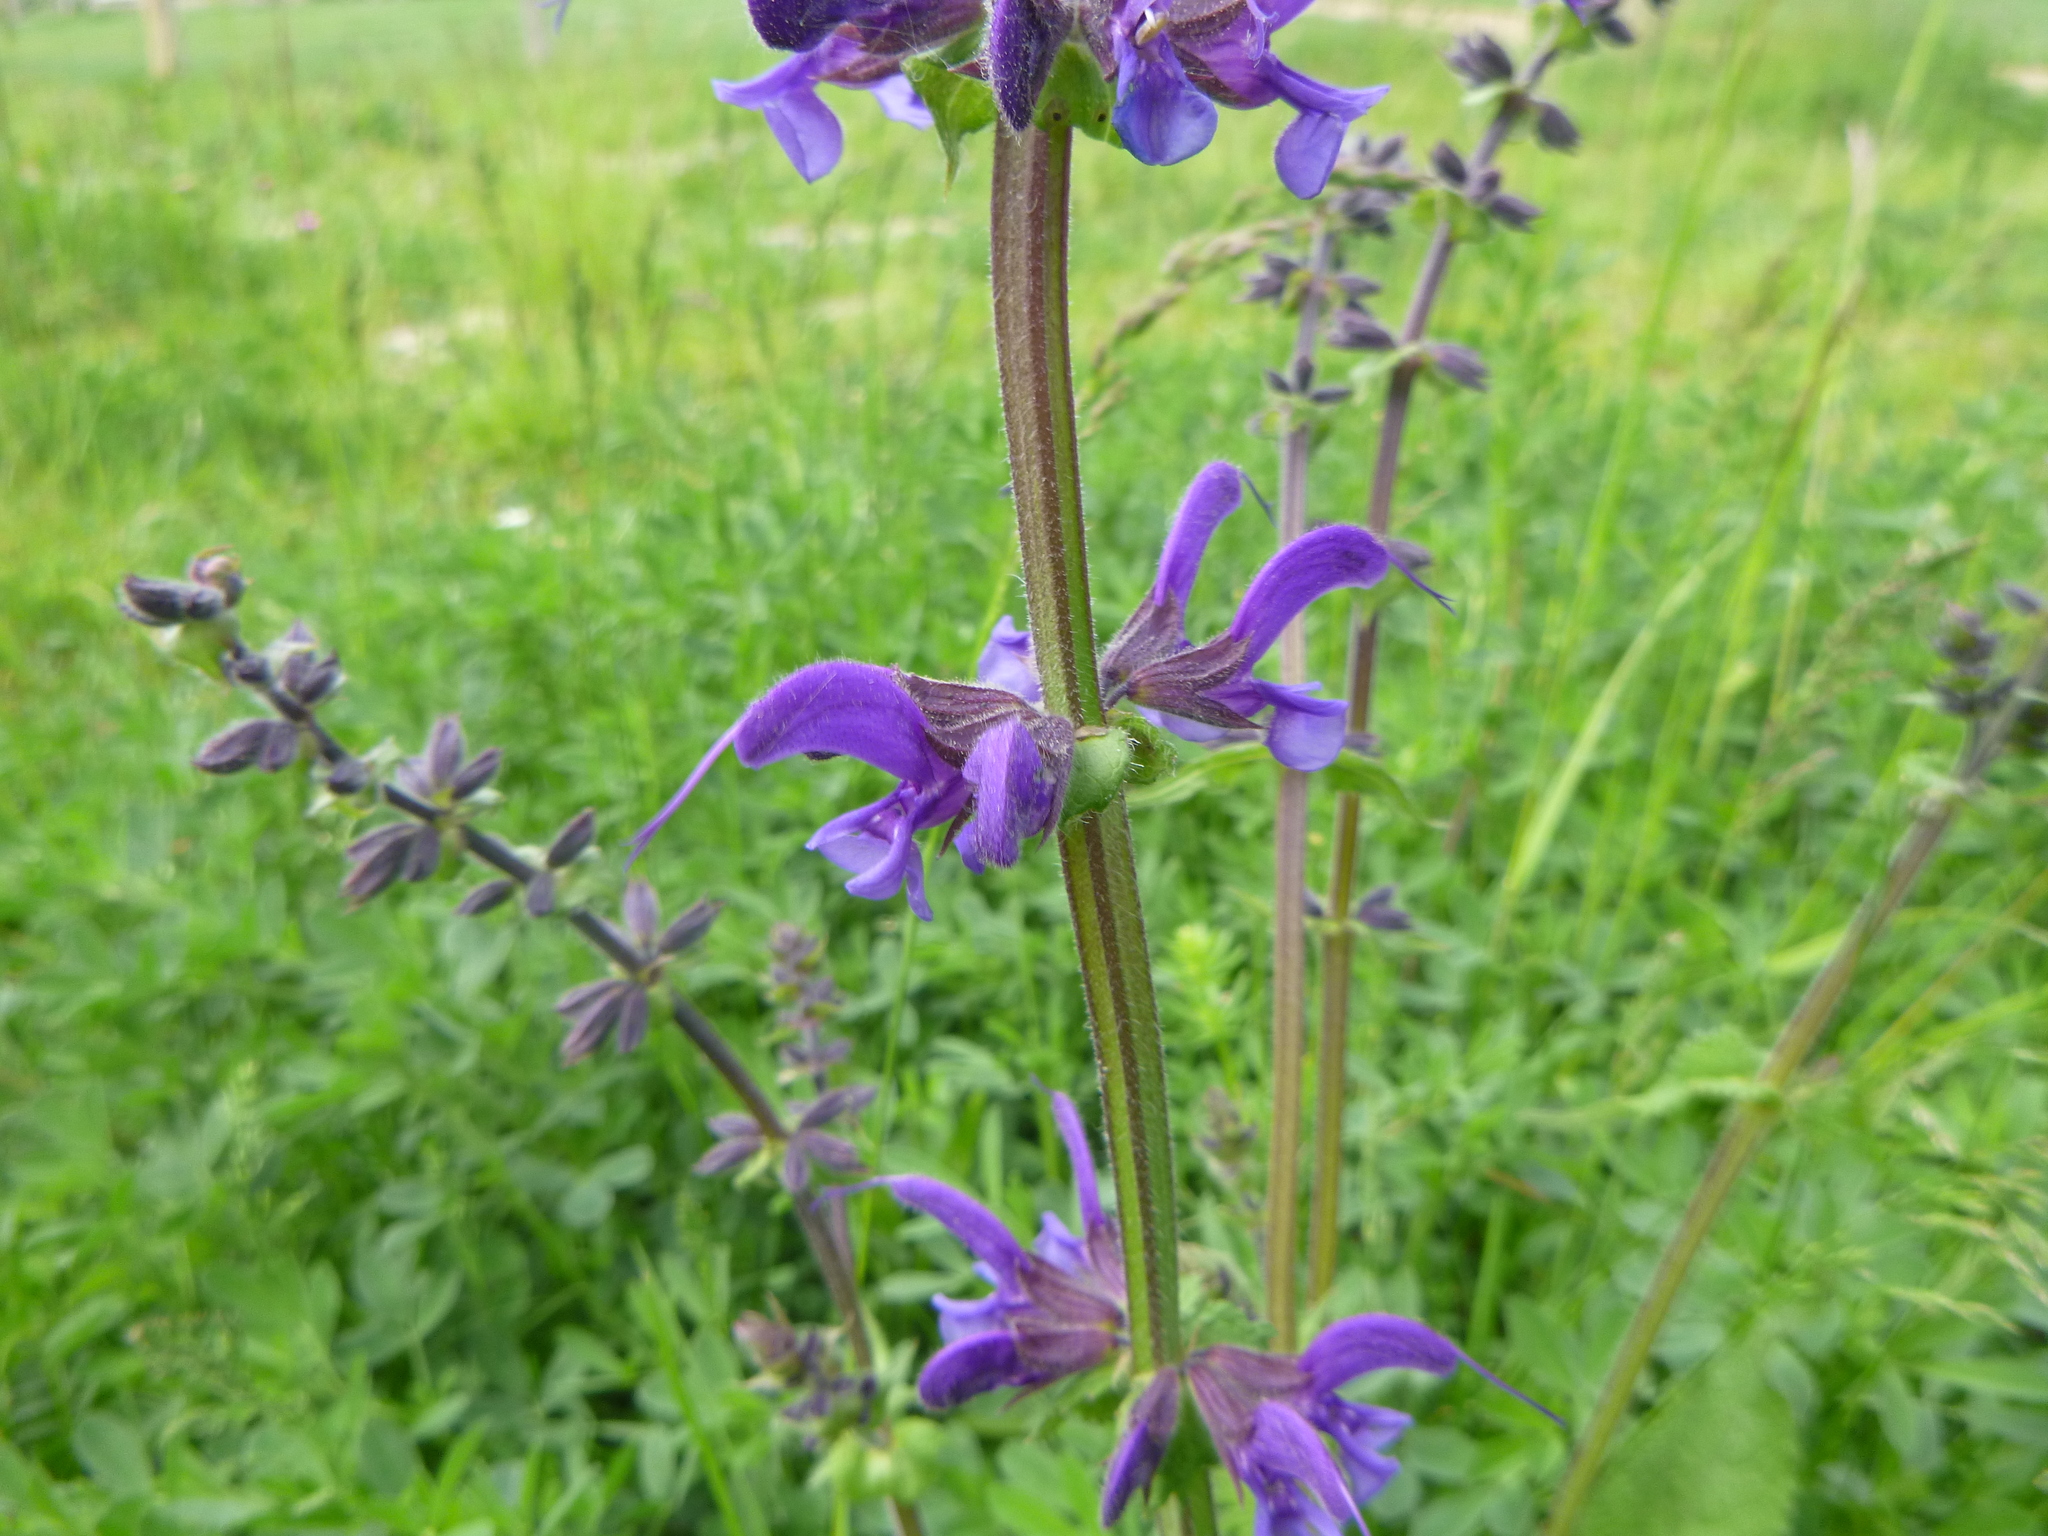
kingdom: Plantae
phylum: Tracheophyta
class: Magnoliopsida
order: Lamiales
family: Lamiaceae
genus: Salvia
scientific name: Salvia pratensis
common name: Meadow sage
